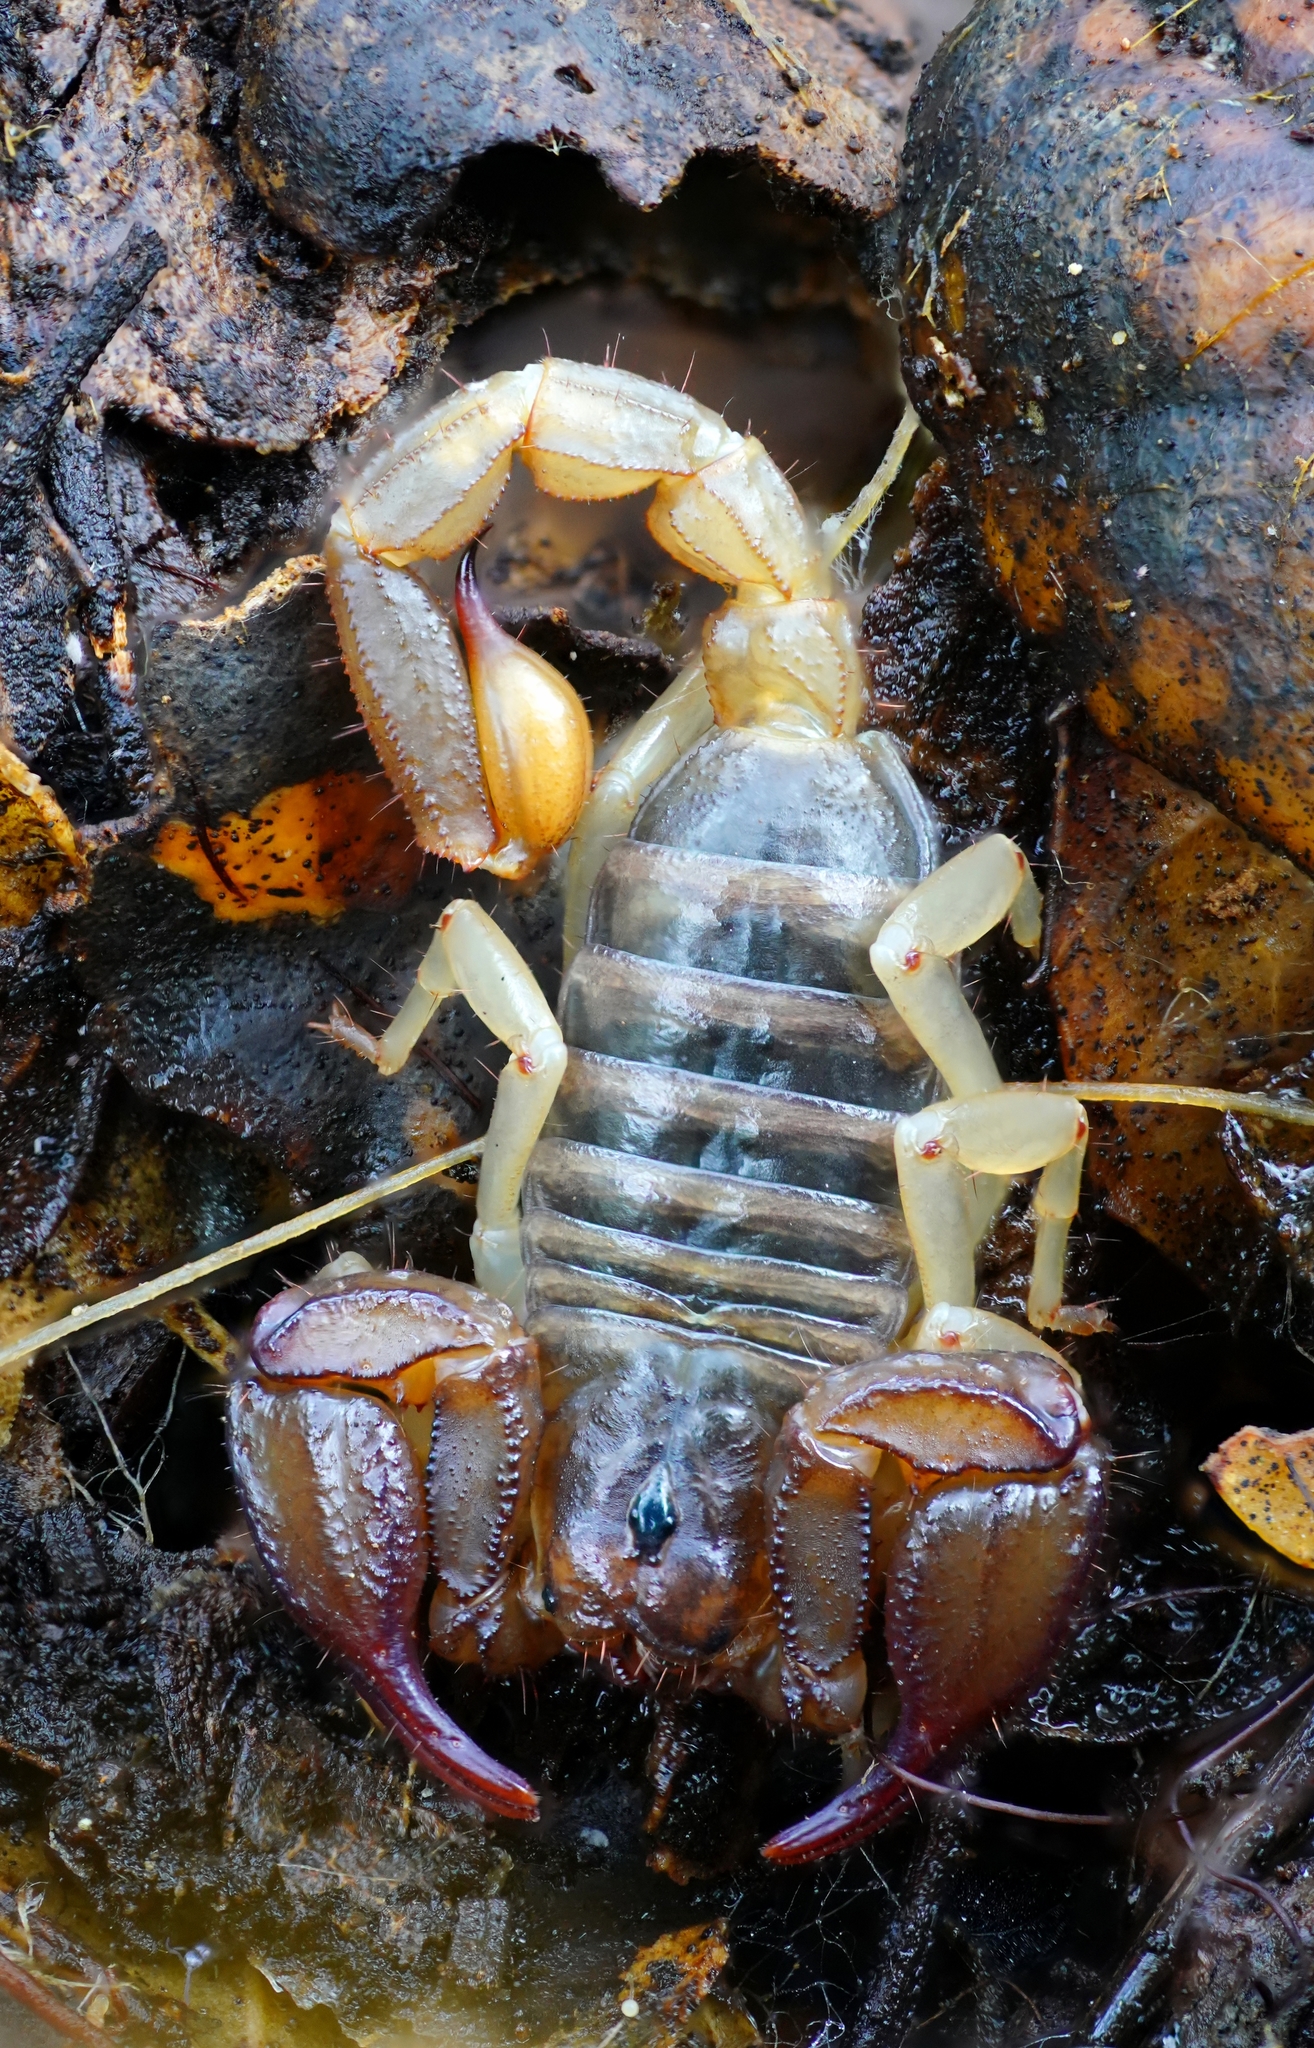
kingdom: Animalia
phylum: Arthropoda
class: Arachnida
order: Scorpiones
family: Chactidae
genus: Uroctonus
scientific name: Uroctonus mordax
